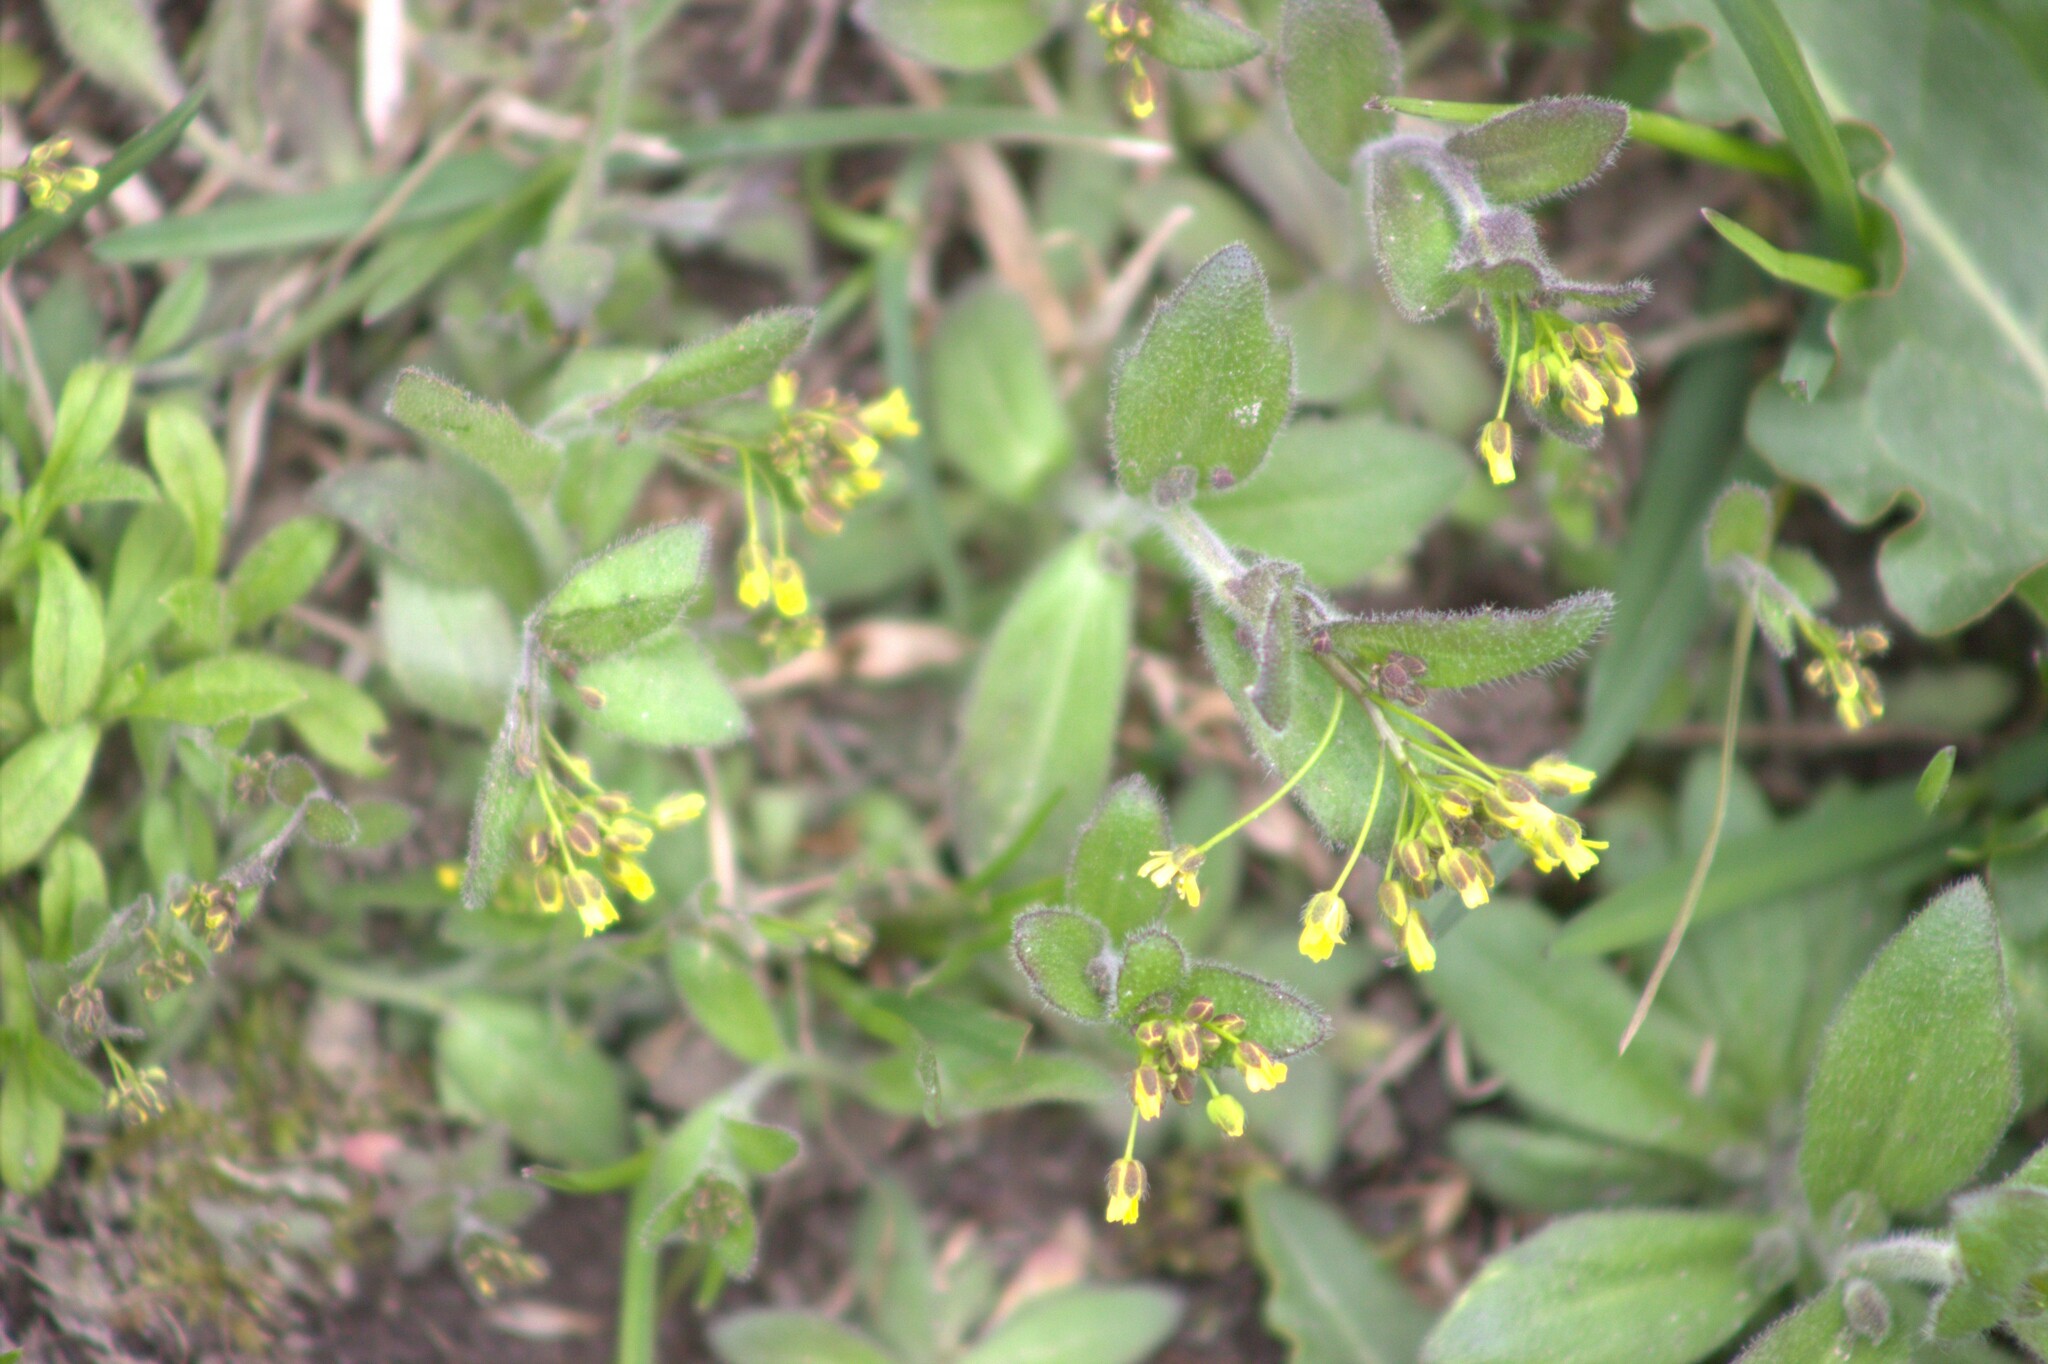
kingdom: Plantae
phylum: Tracheophyta
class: Magnoliopsida
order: Brassicales
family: Brassicaceae
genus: Draba
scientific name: Draba nemorosa
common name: Wood whitlow-grass
